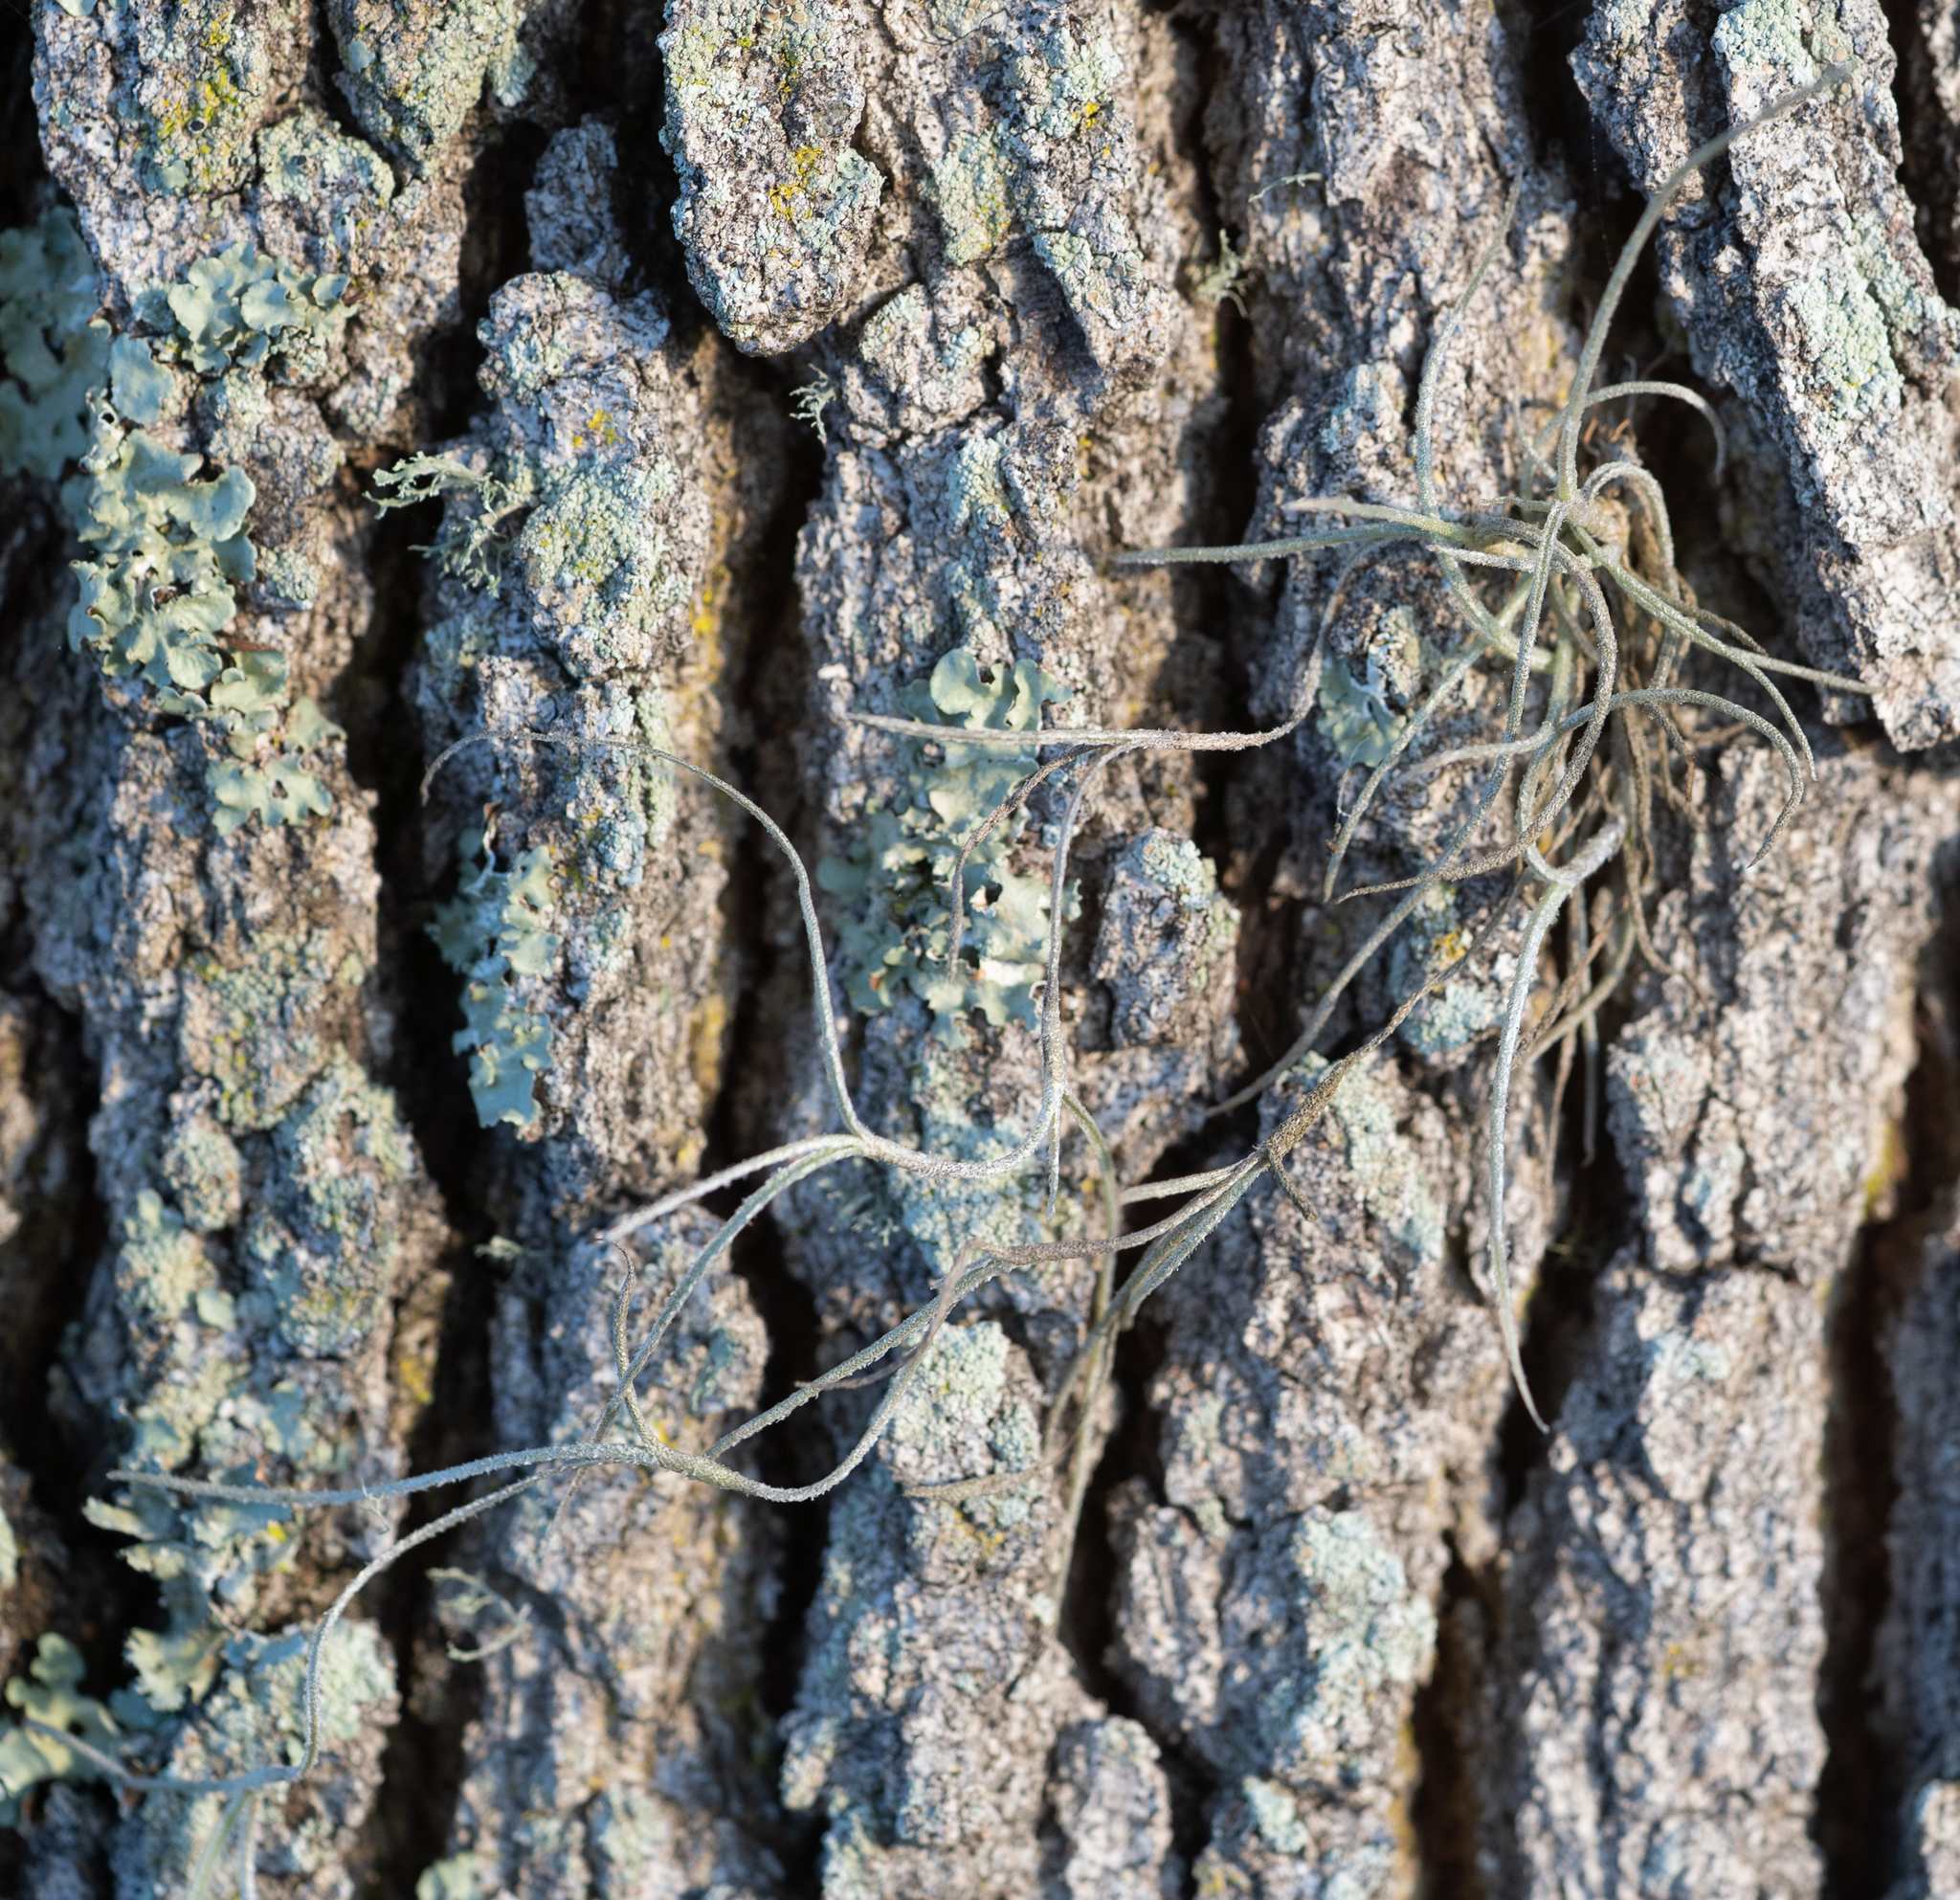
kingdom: Plantae
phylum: Tracheophyta
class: Liliopsida
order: Poales
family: Bromeliaceae
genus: Tillandsia
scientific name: Tillandsia usneoides
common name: Spanish moss
